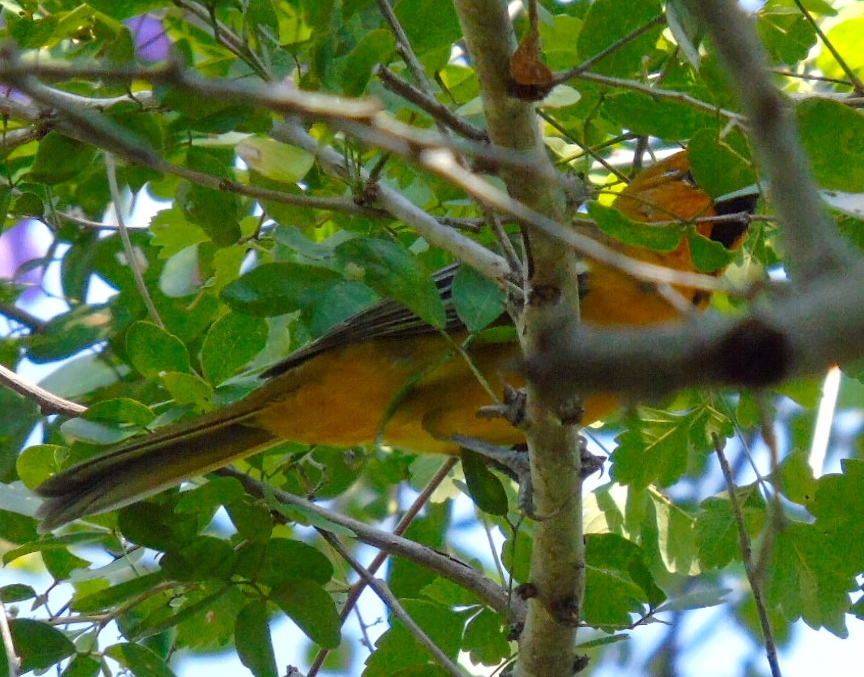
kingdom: Animalia
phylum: Chordata
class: Aves
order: Passeriformes
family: Icteridae
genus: Icterus
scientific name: Icterus pustulatus
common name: Streak-backed oriole
